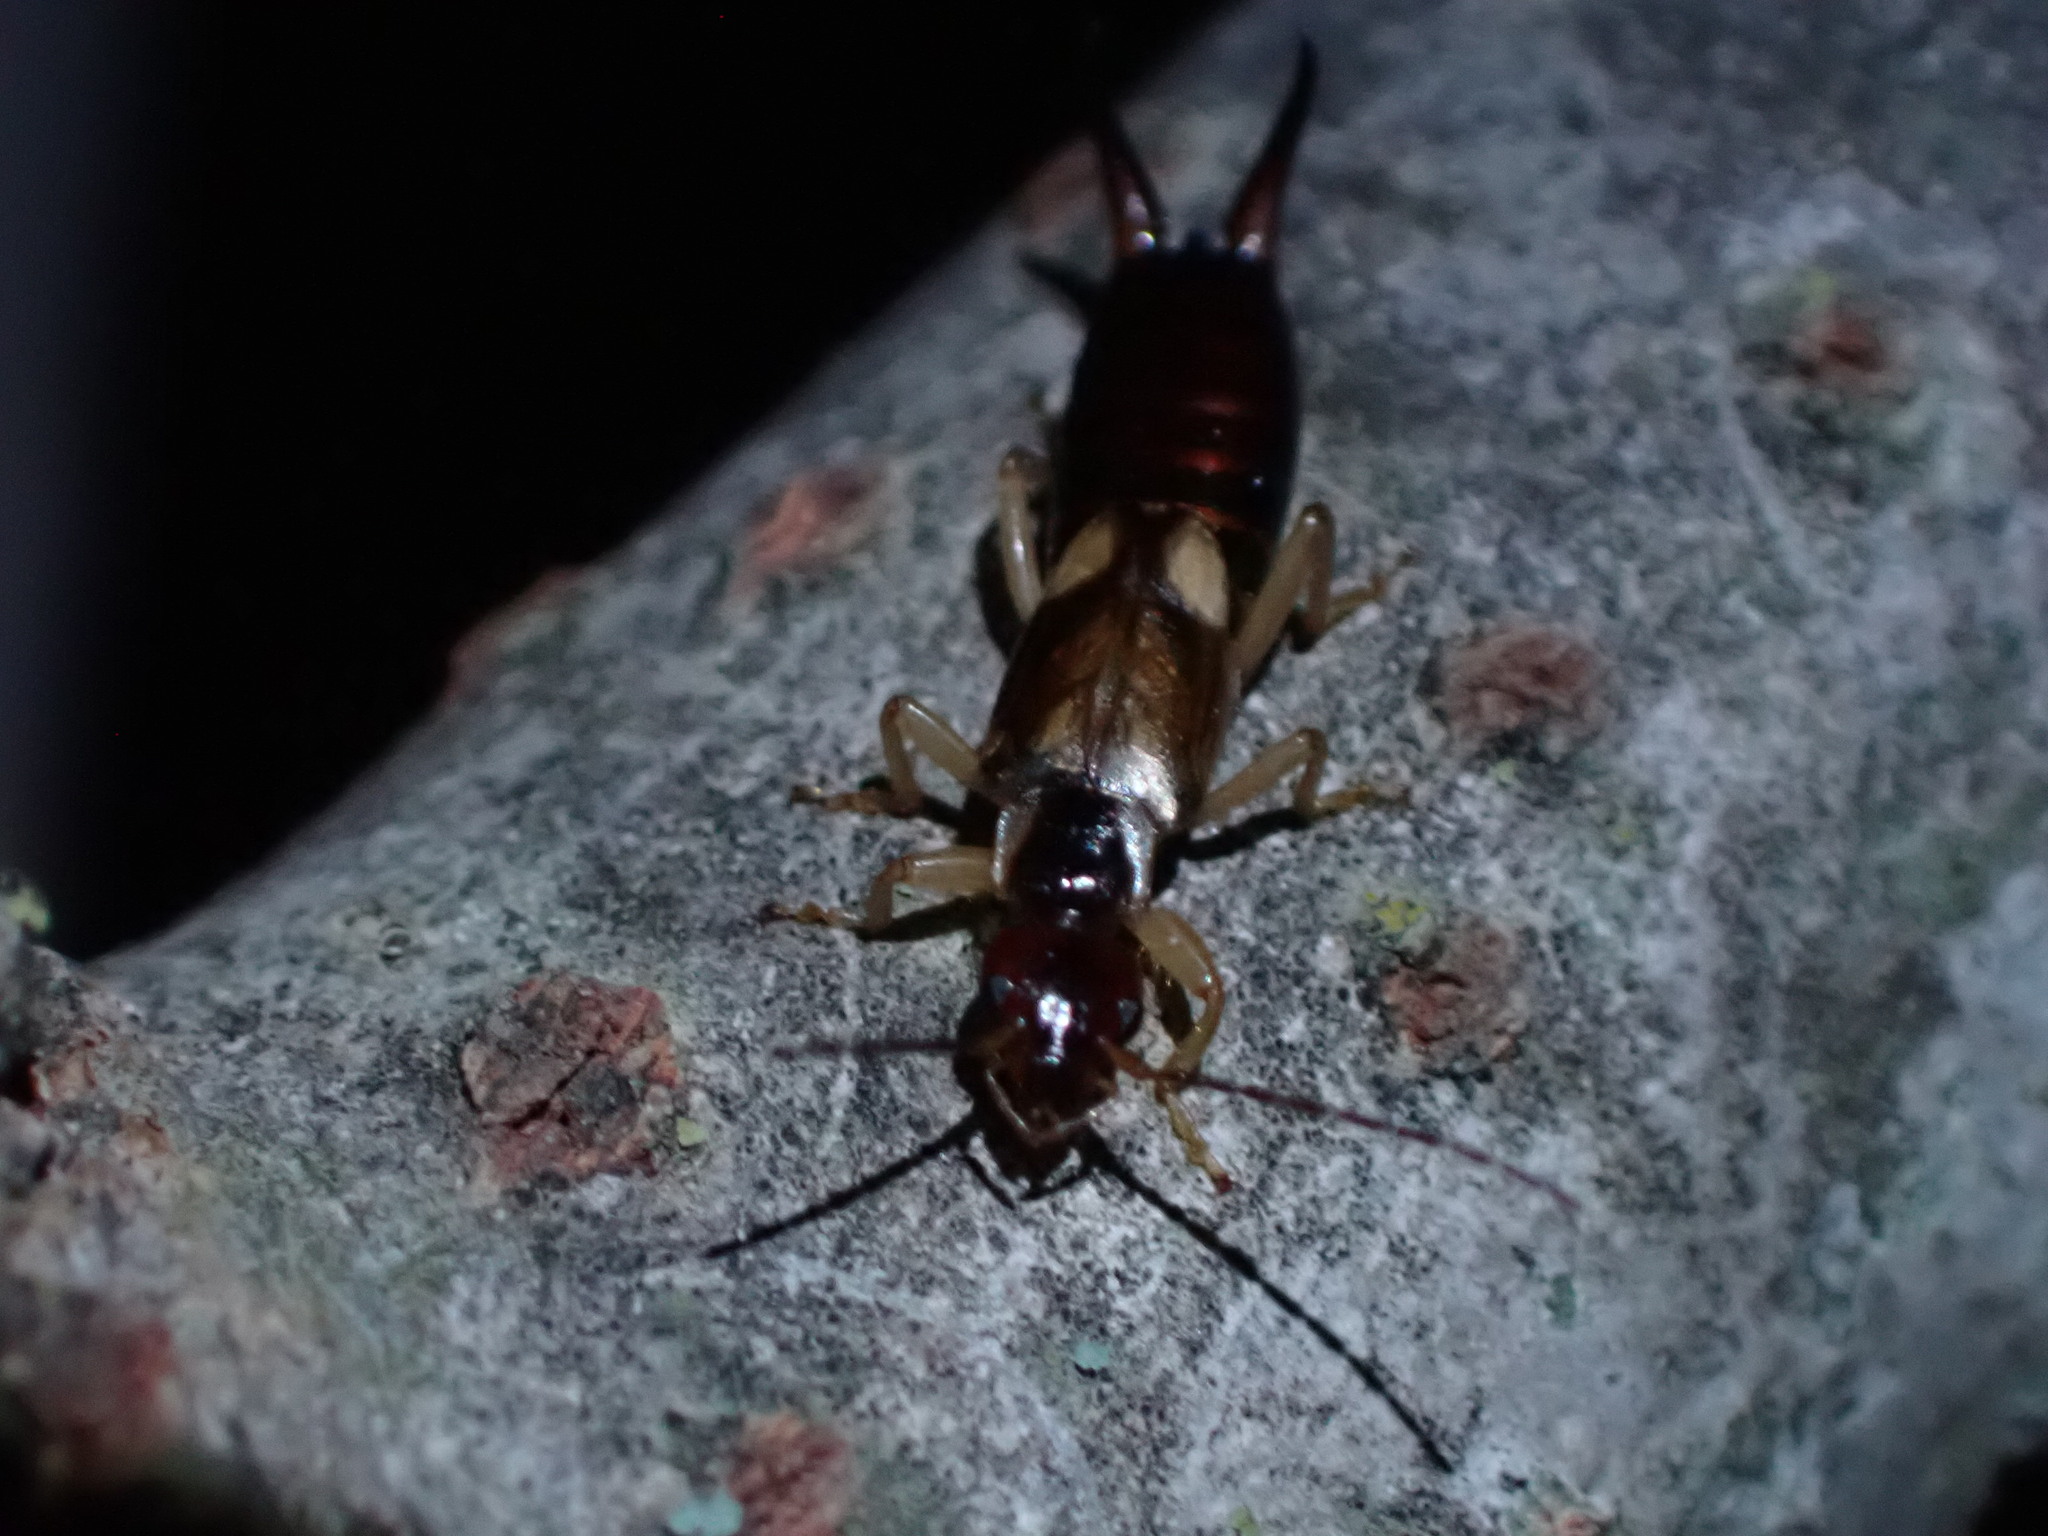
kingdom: Animalia
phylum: Arthropoda
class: Insecta
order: Dermaptera
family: Forficulidae
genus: Forficula
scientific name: Forficula
